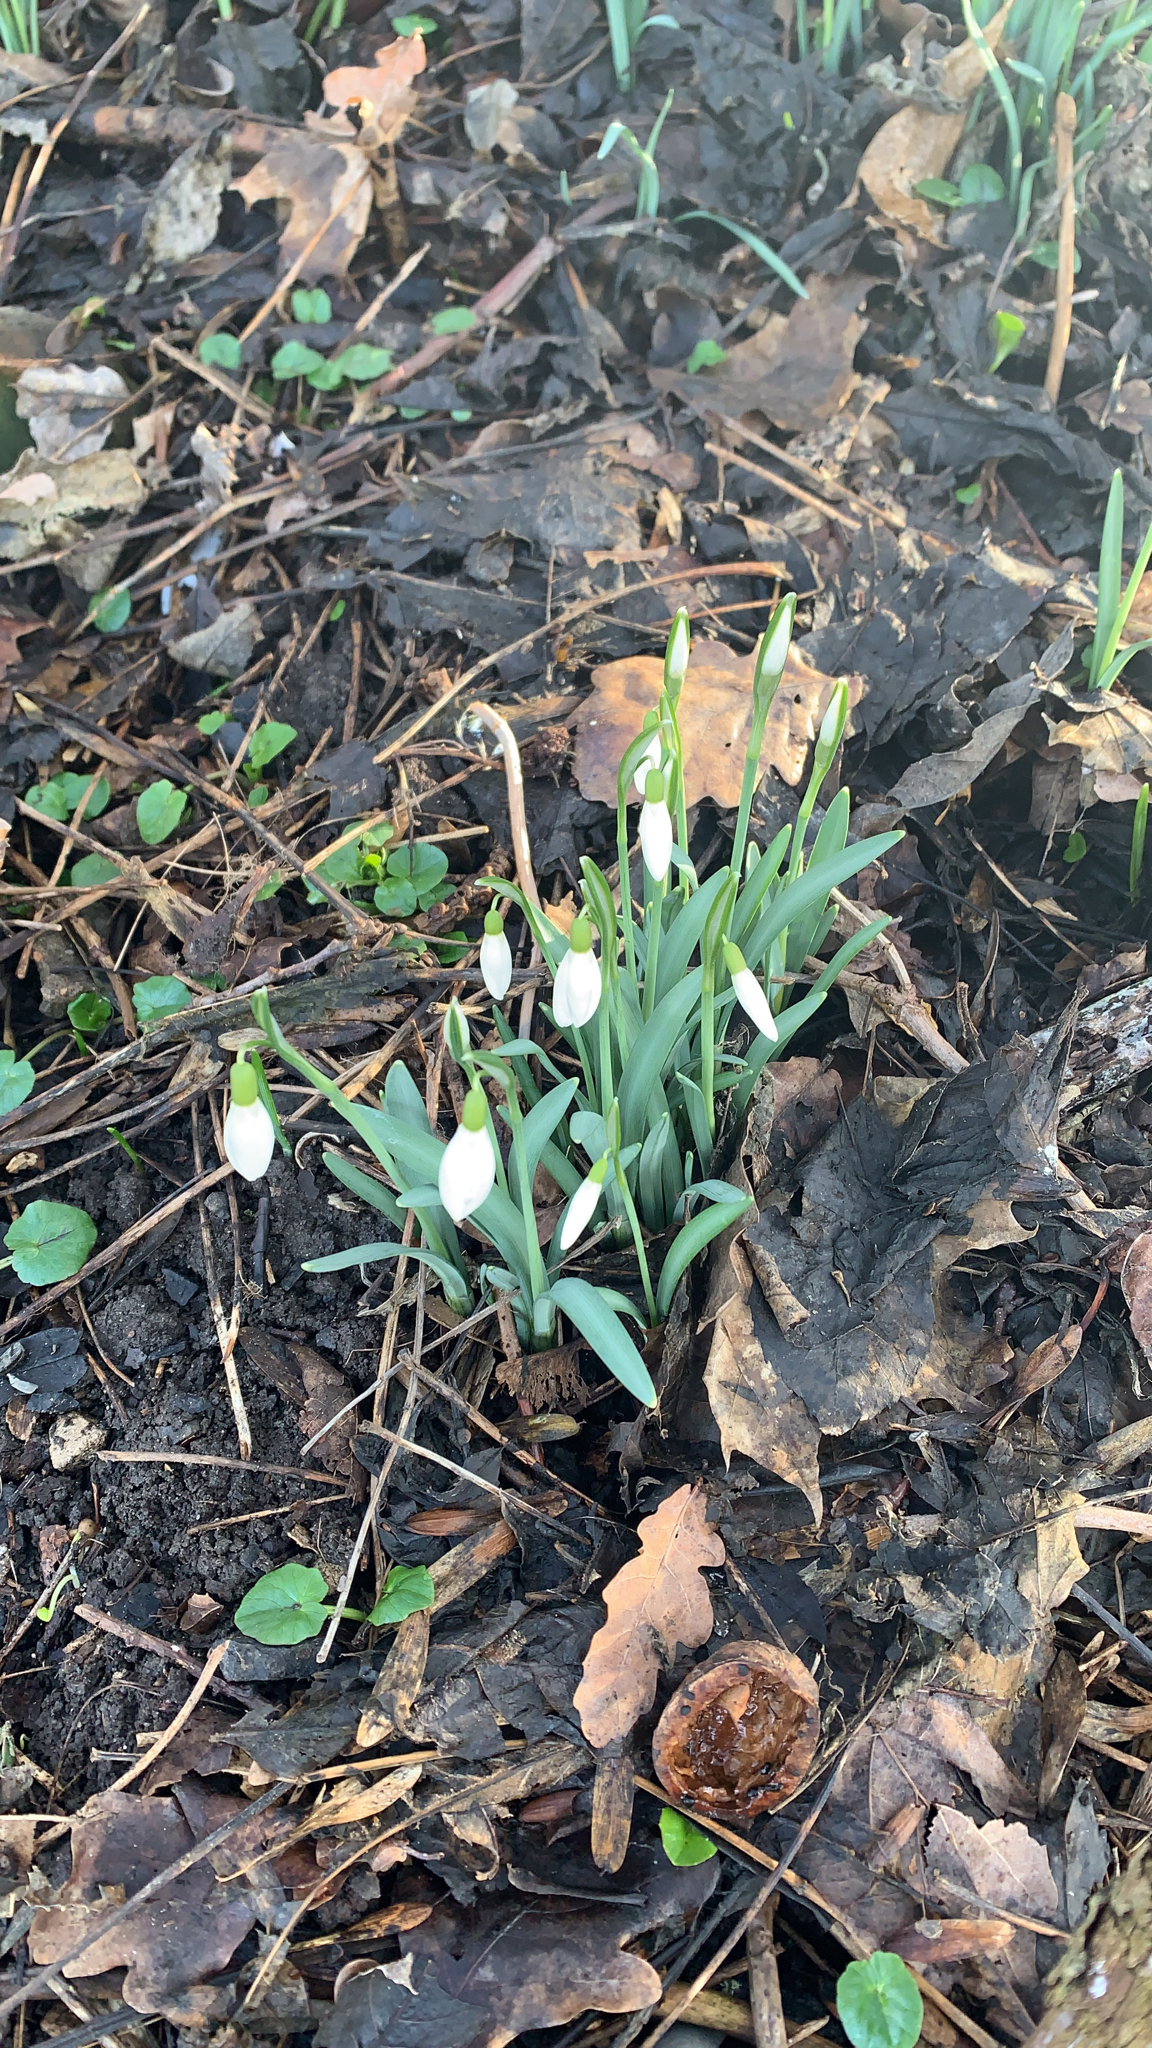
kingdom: Plantae
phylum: Tracheophyta
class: Liliopsida
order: Asparagales
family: Amaryllidaceae
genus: Galanthus
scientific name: Galanthus nivalis
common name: Snowdrop
